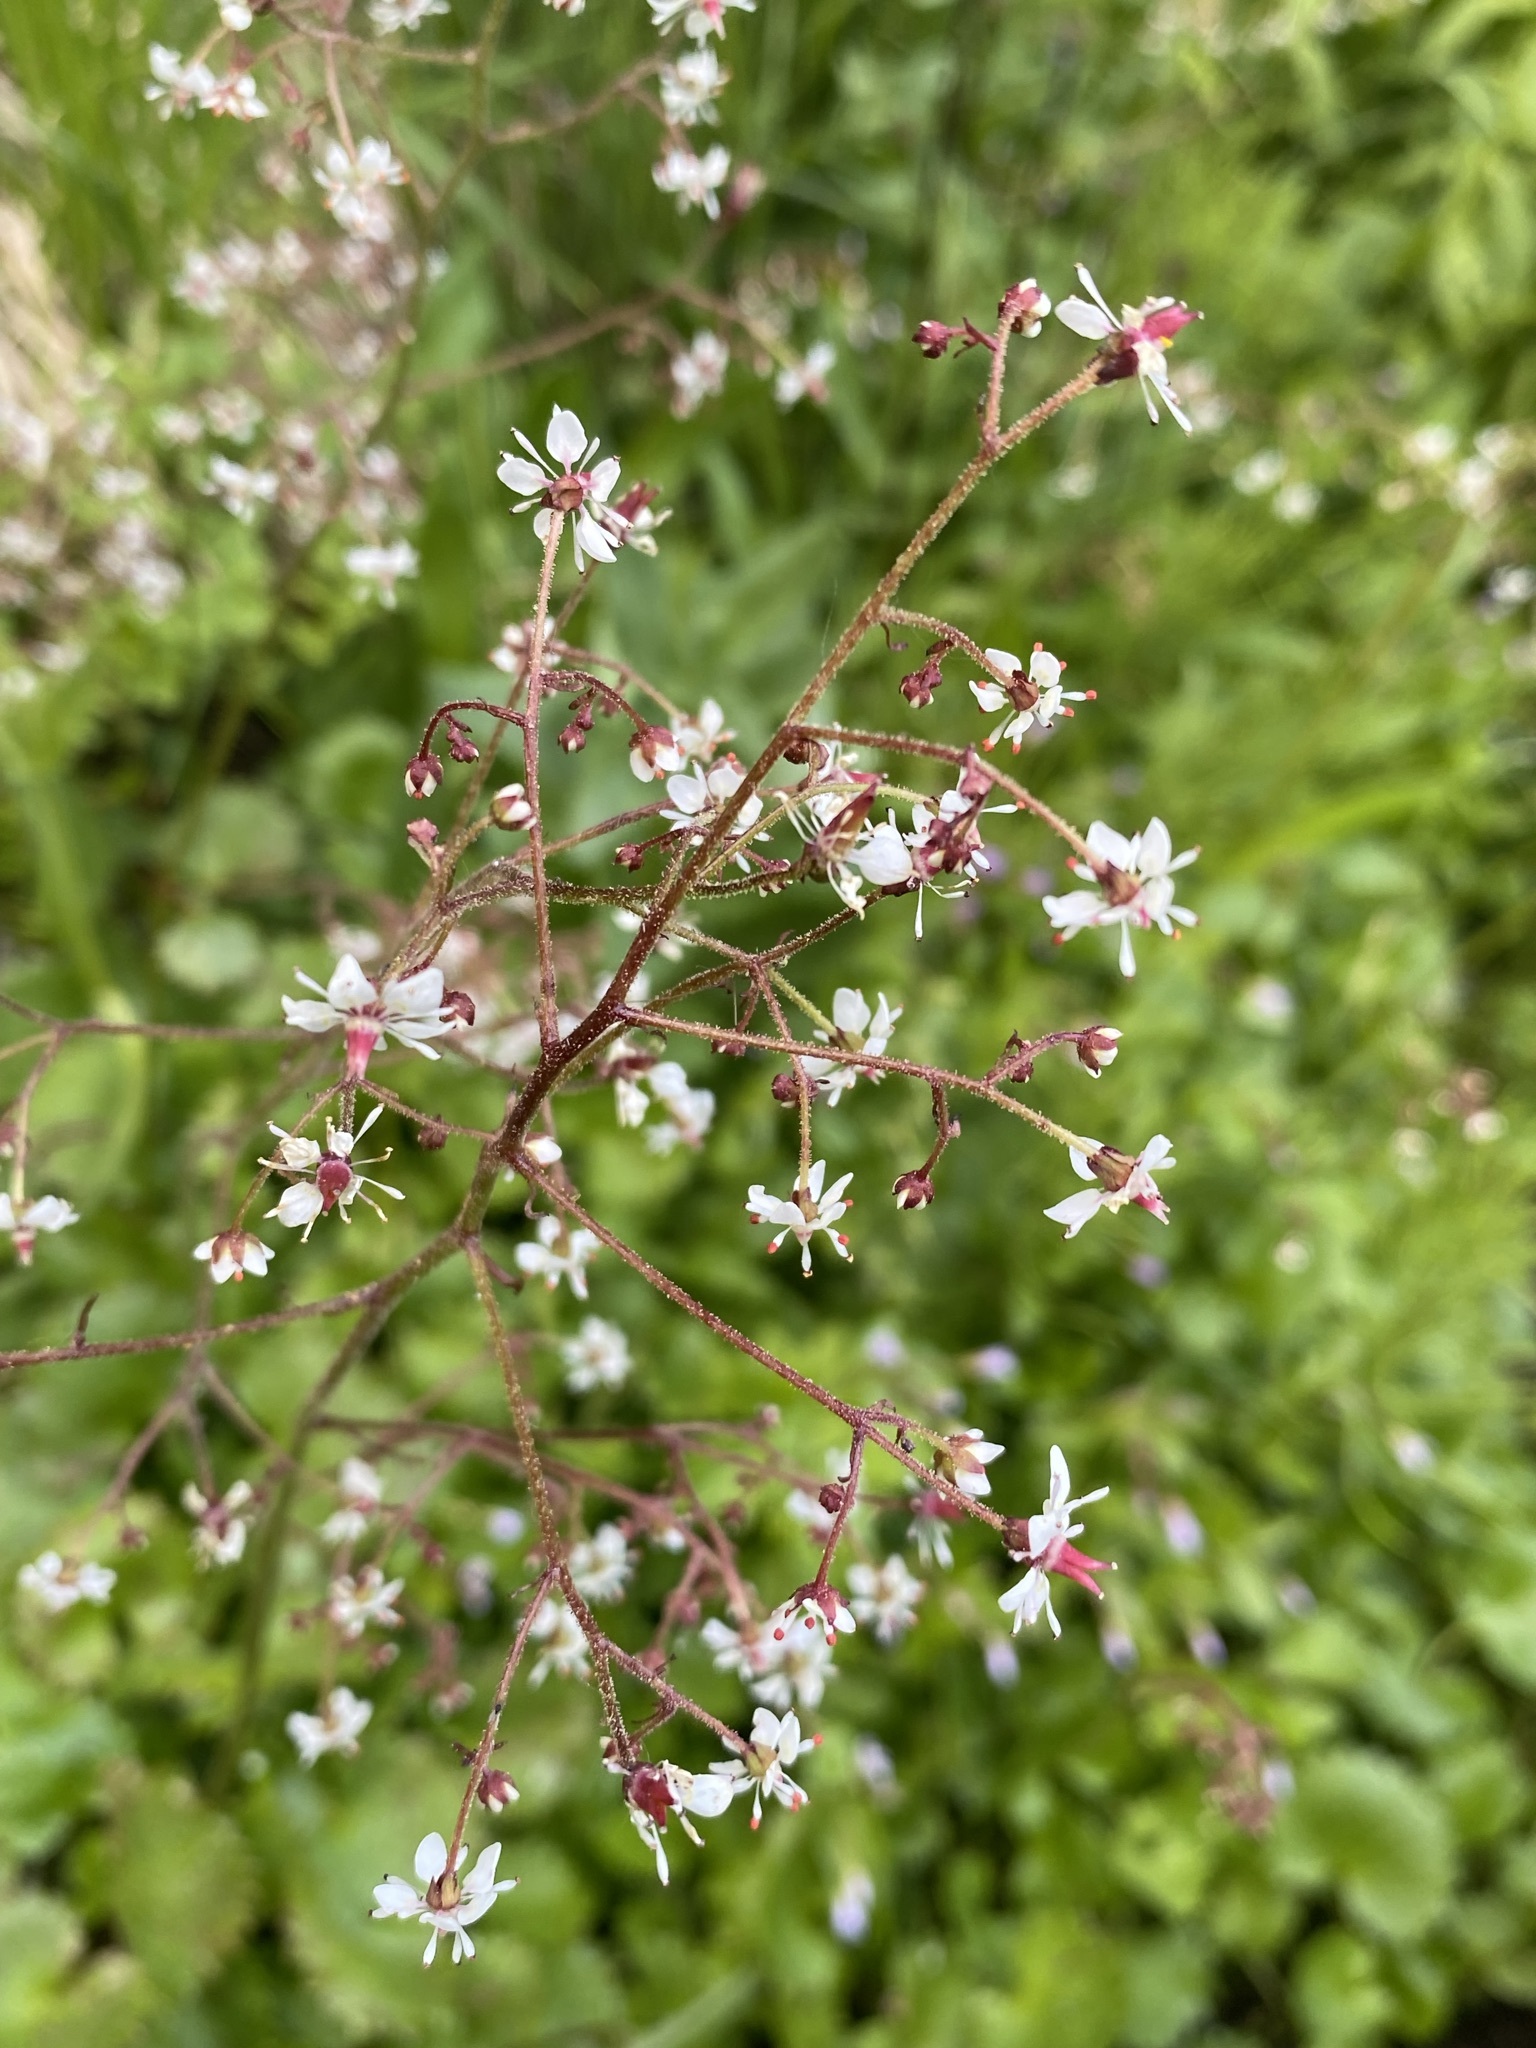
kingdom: Plantae
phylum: Tracheophyta
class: Magnoliopsida
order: Saxifragales
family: Saxifragaceae
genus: Micranthes
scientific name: Micranthes odontoloma
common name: Brook saxifrage
